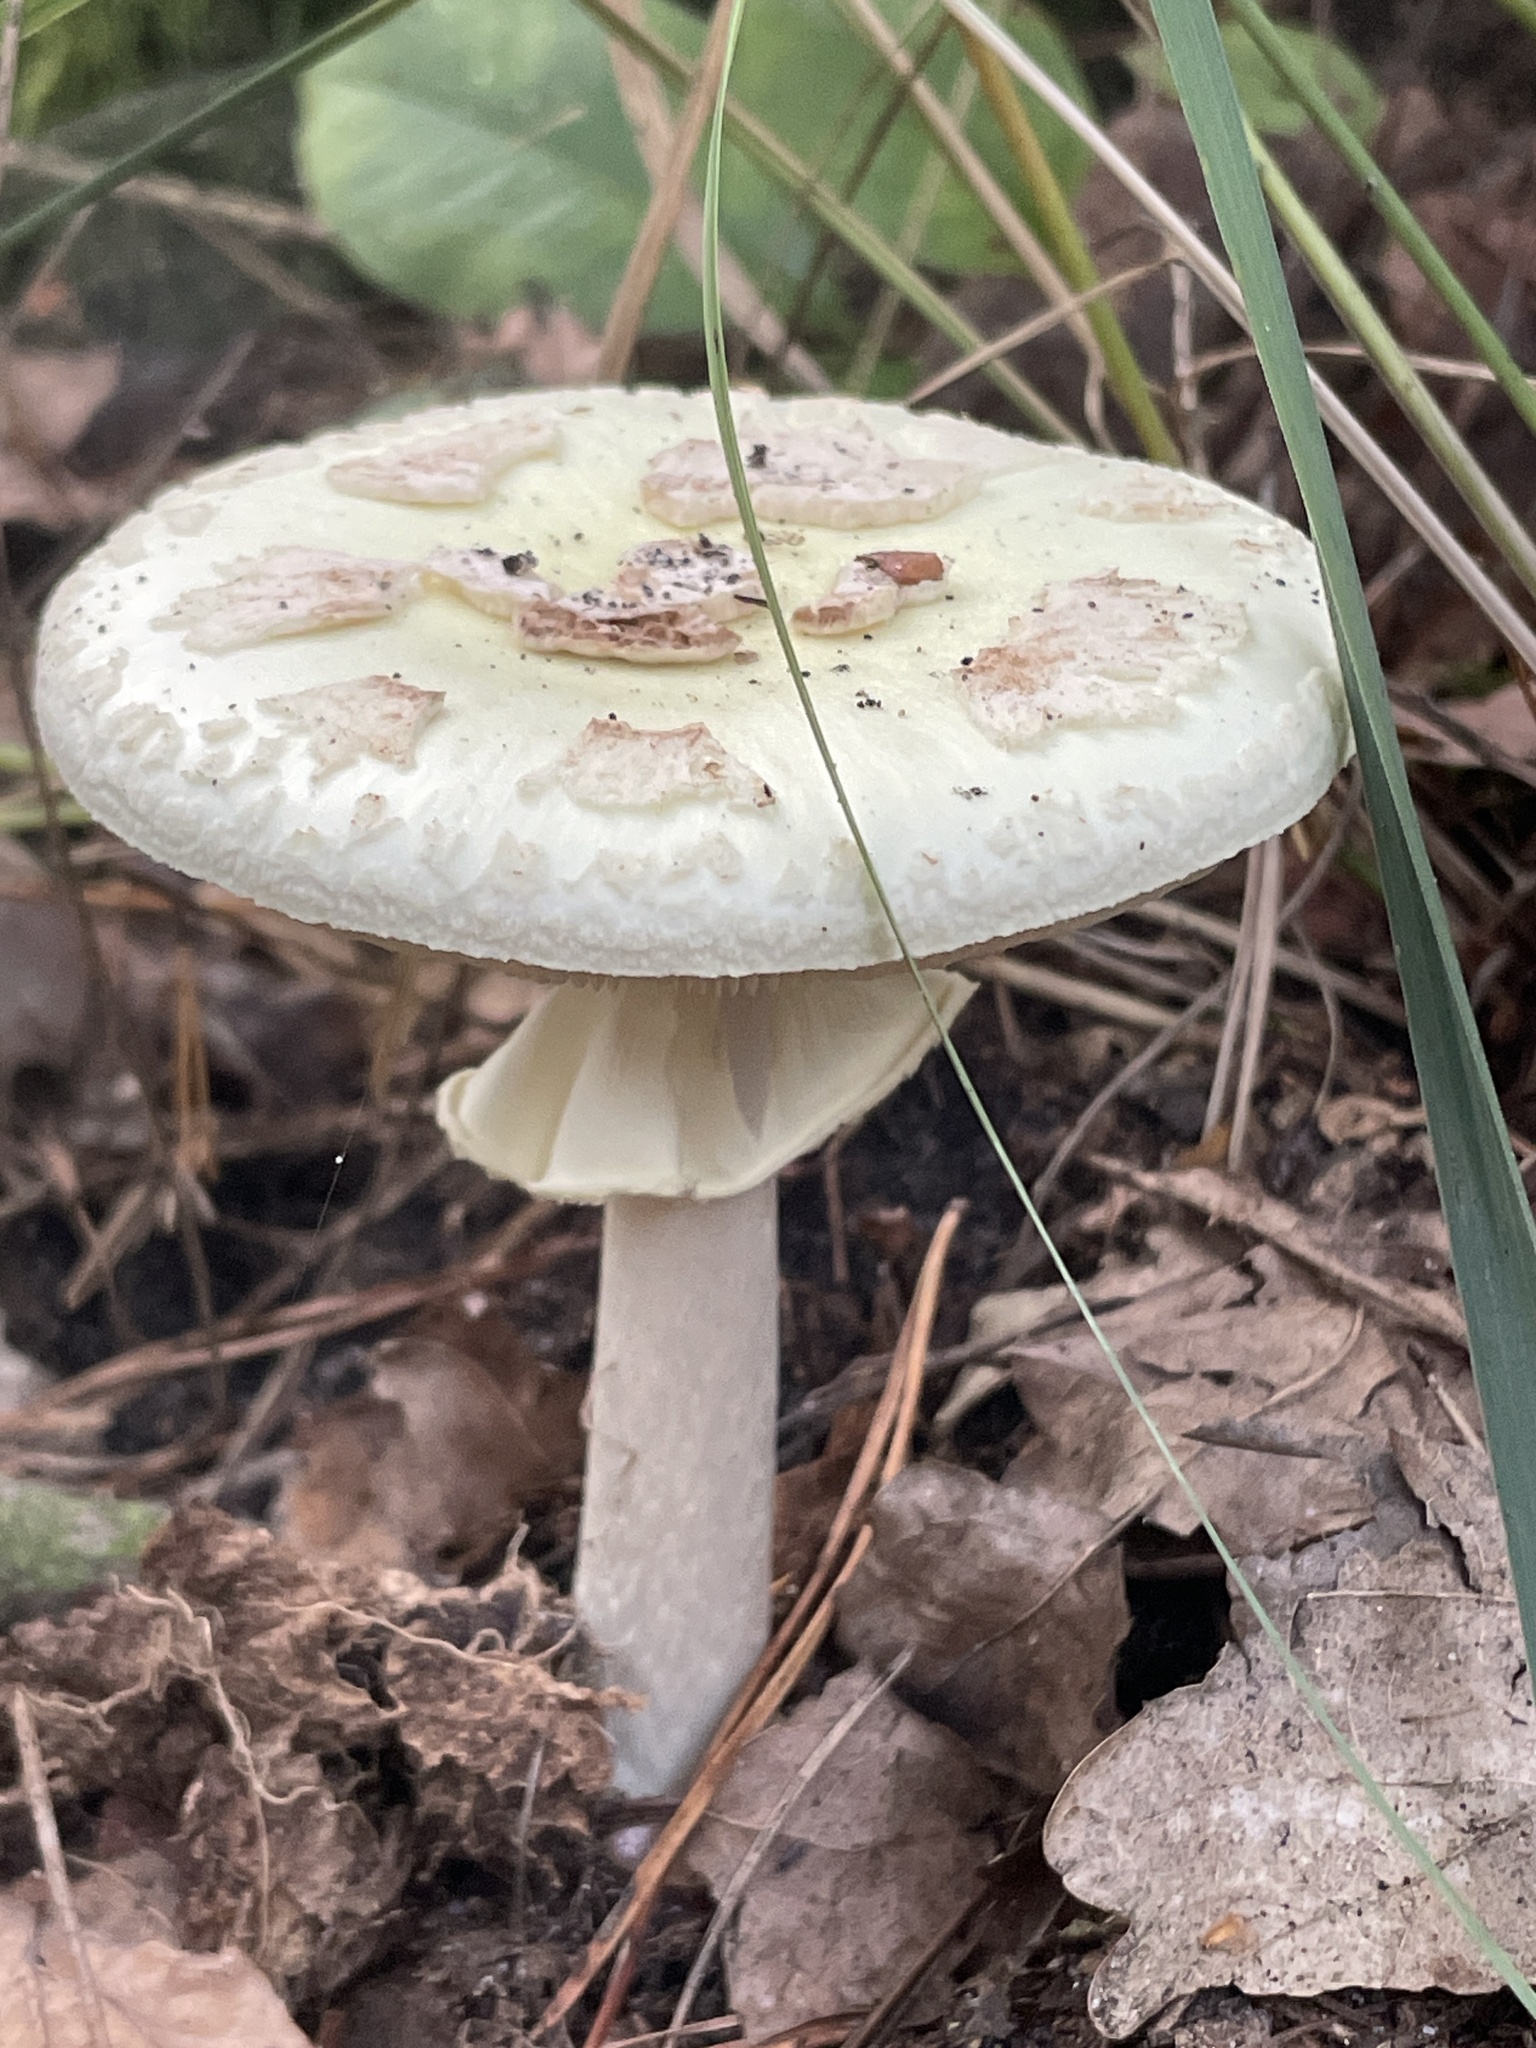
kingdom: Fungi
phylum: Basidiomycota
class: Agaricomycetes
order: Agaricales
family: Amanitaceae
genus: Amanita
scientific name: Amanita citrina
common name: False death-cap
